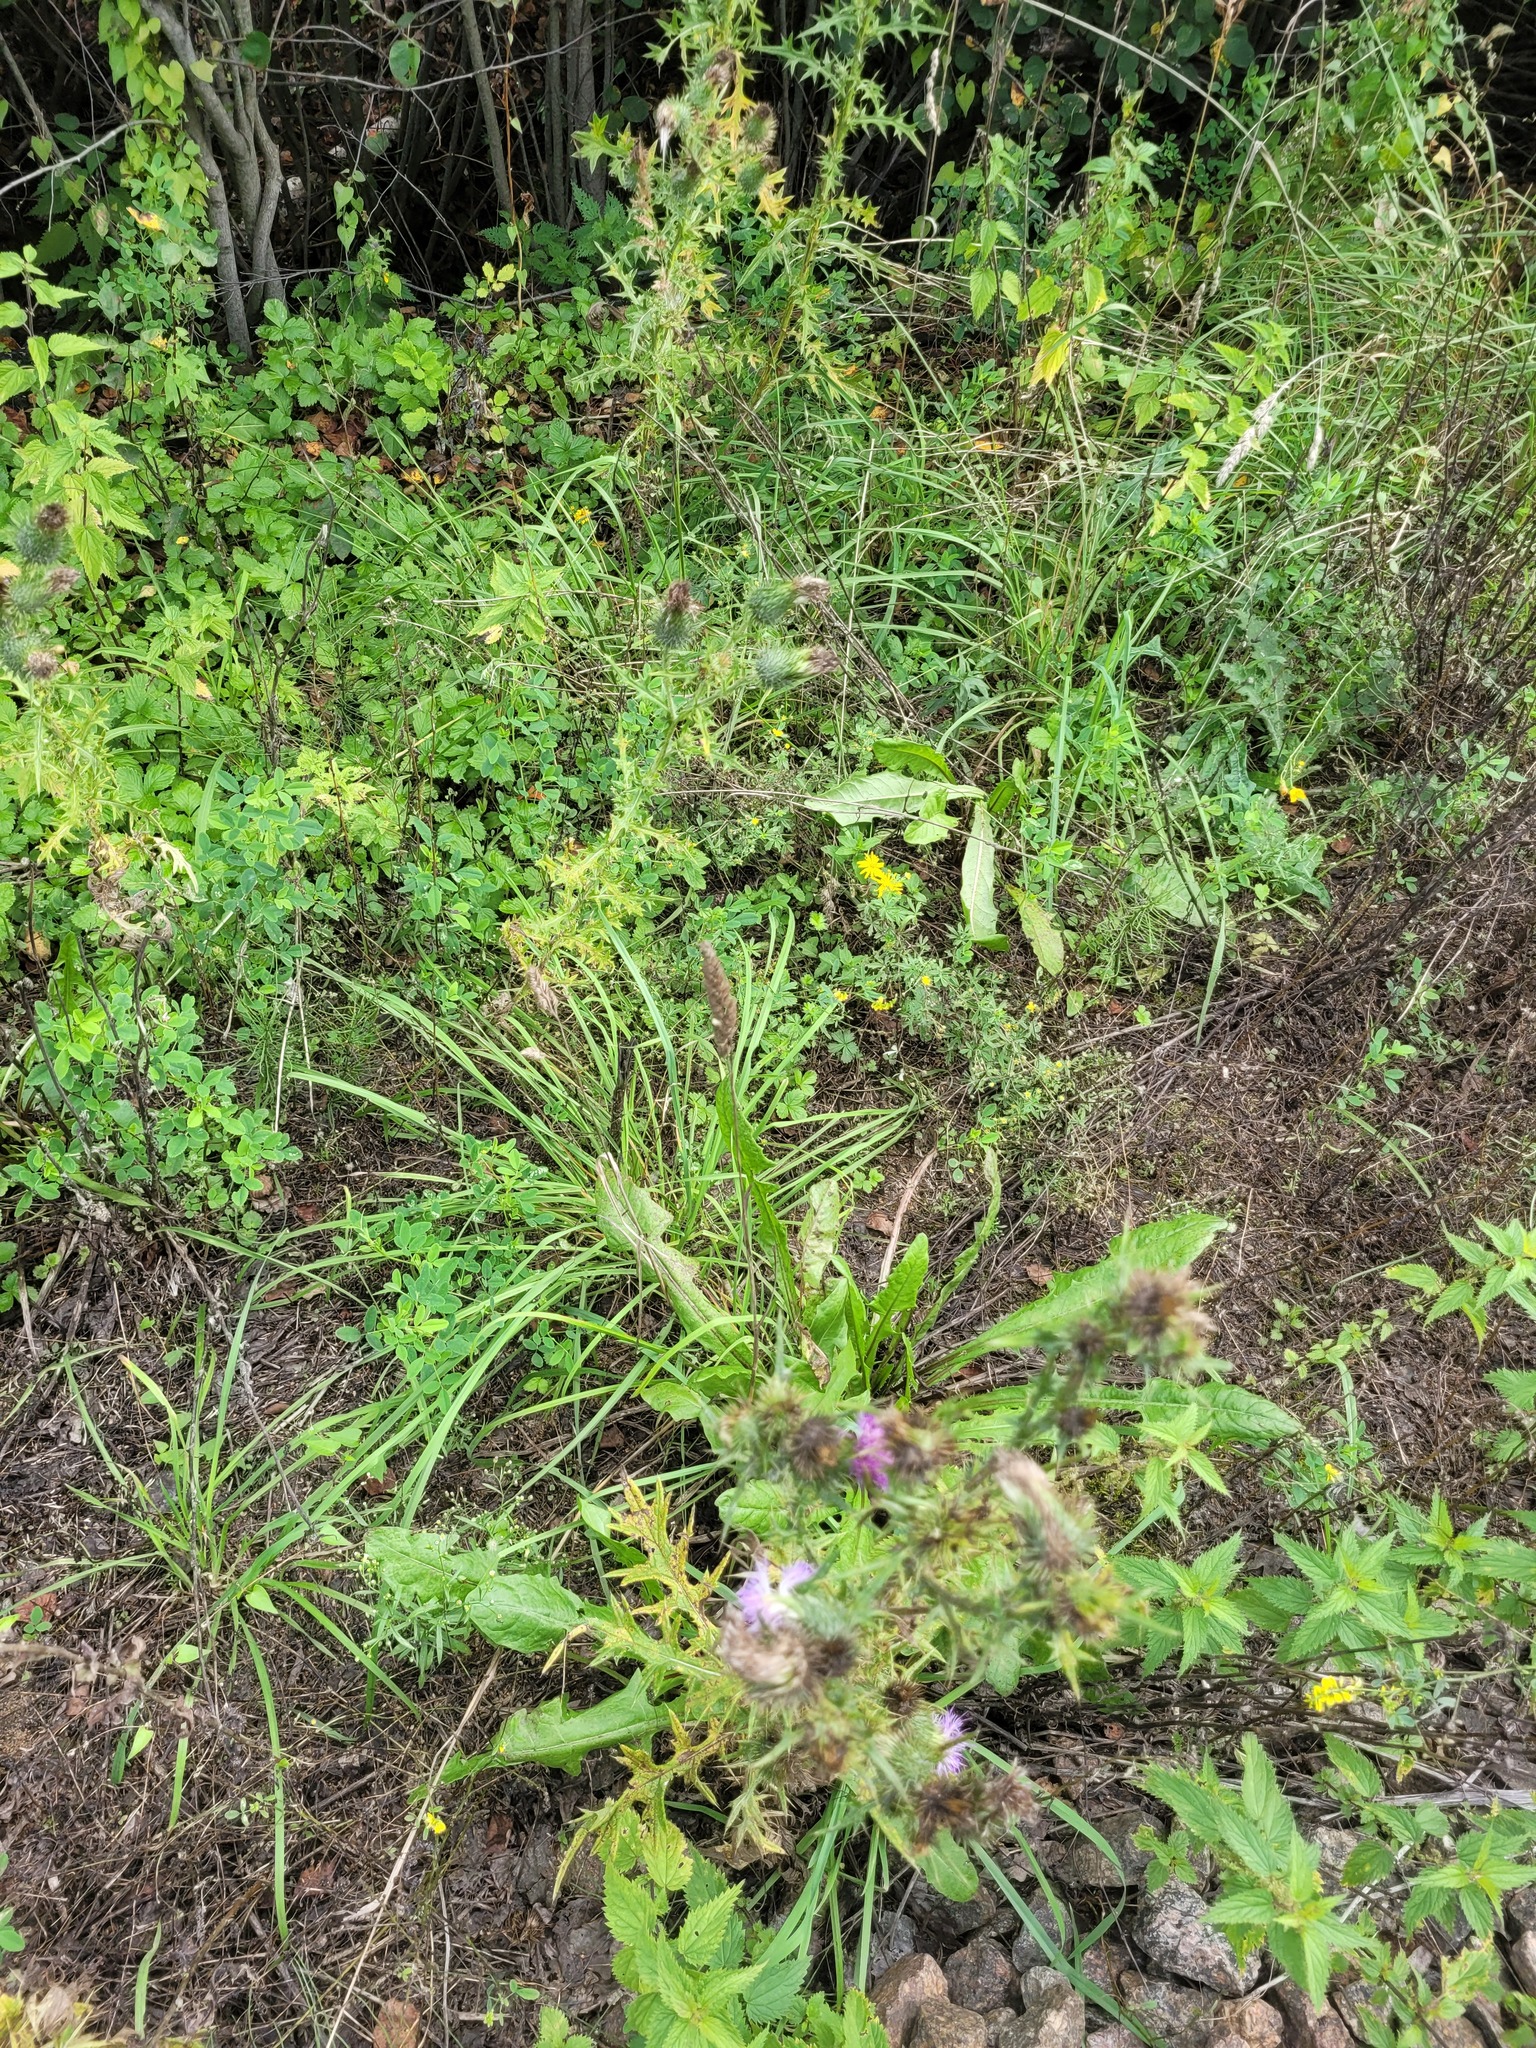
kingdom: Plantae
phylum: Tracheophyta
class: Liliopsida
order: Poales
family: Poaceae
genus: Dactylis
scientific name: Dactylis glomerata
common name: Orchardgrass
